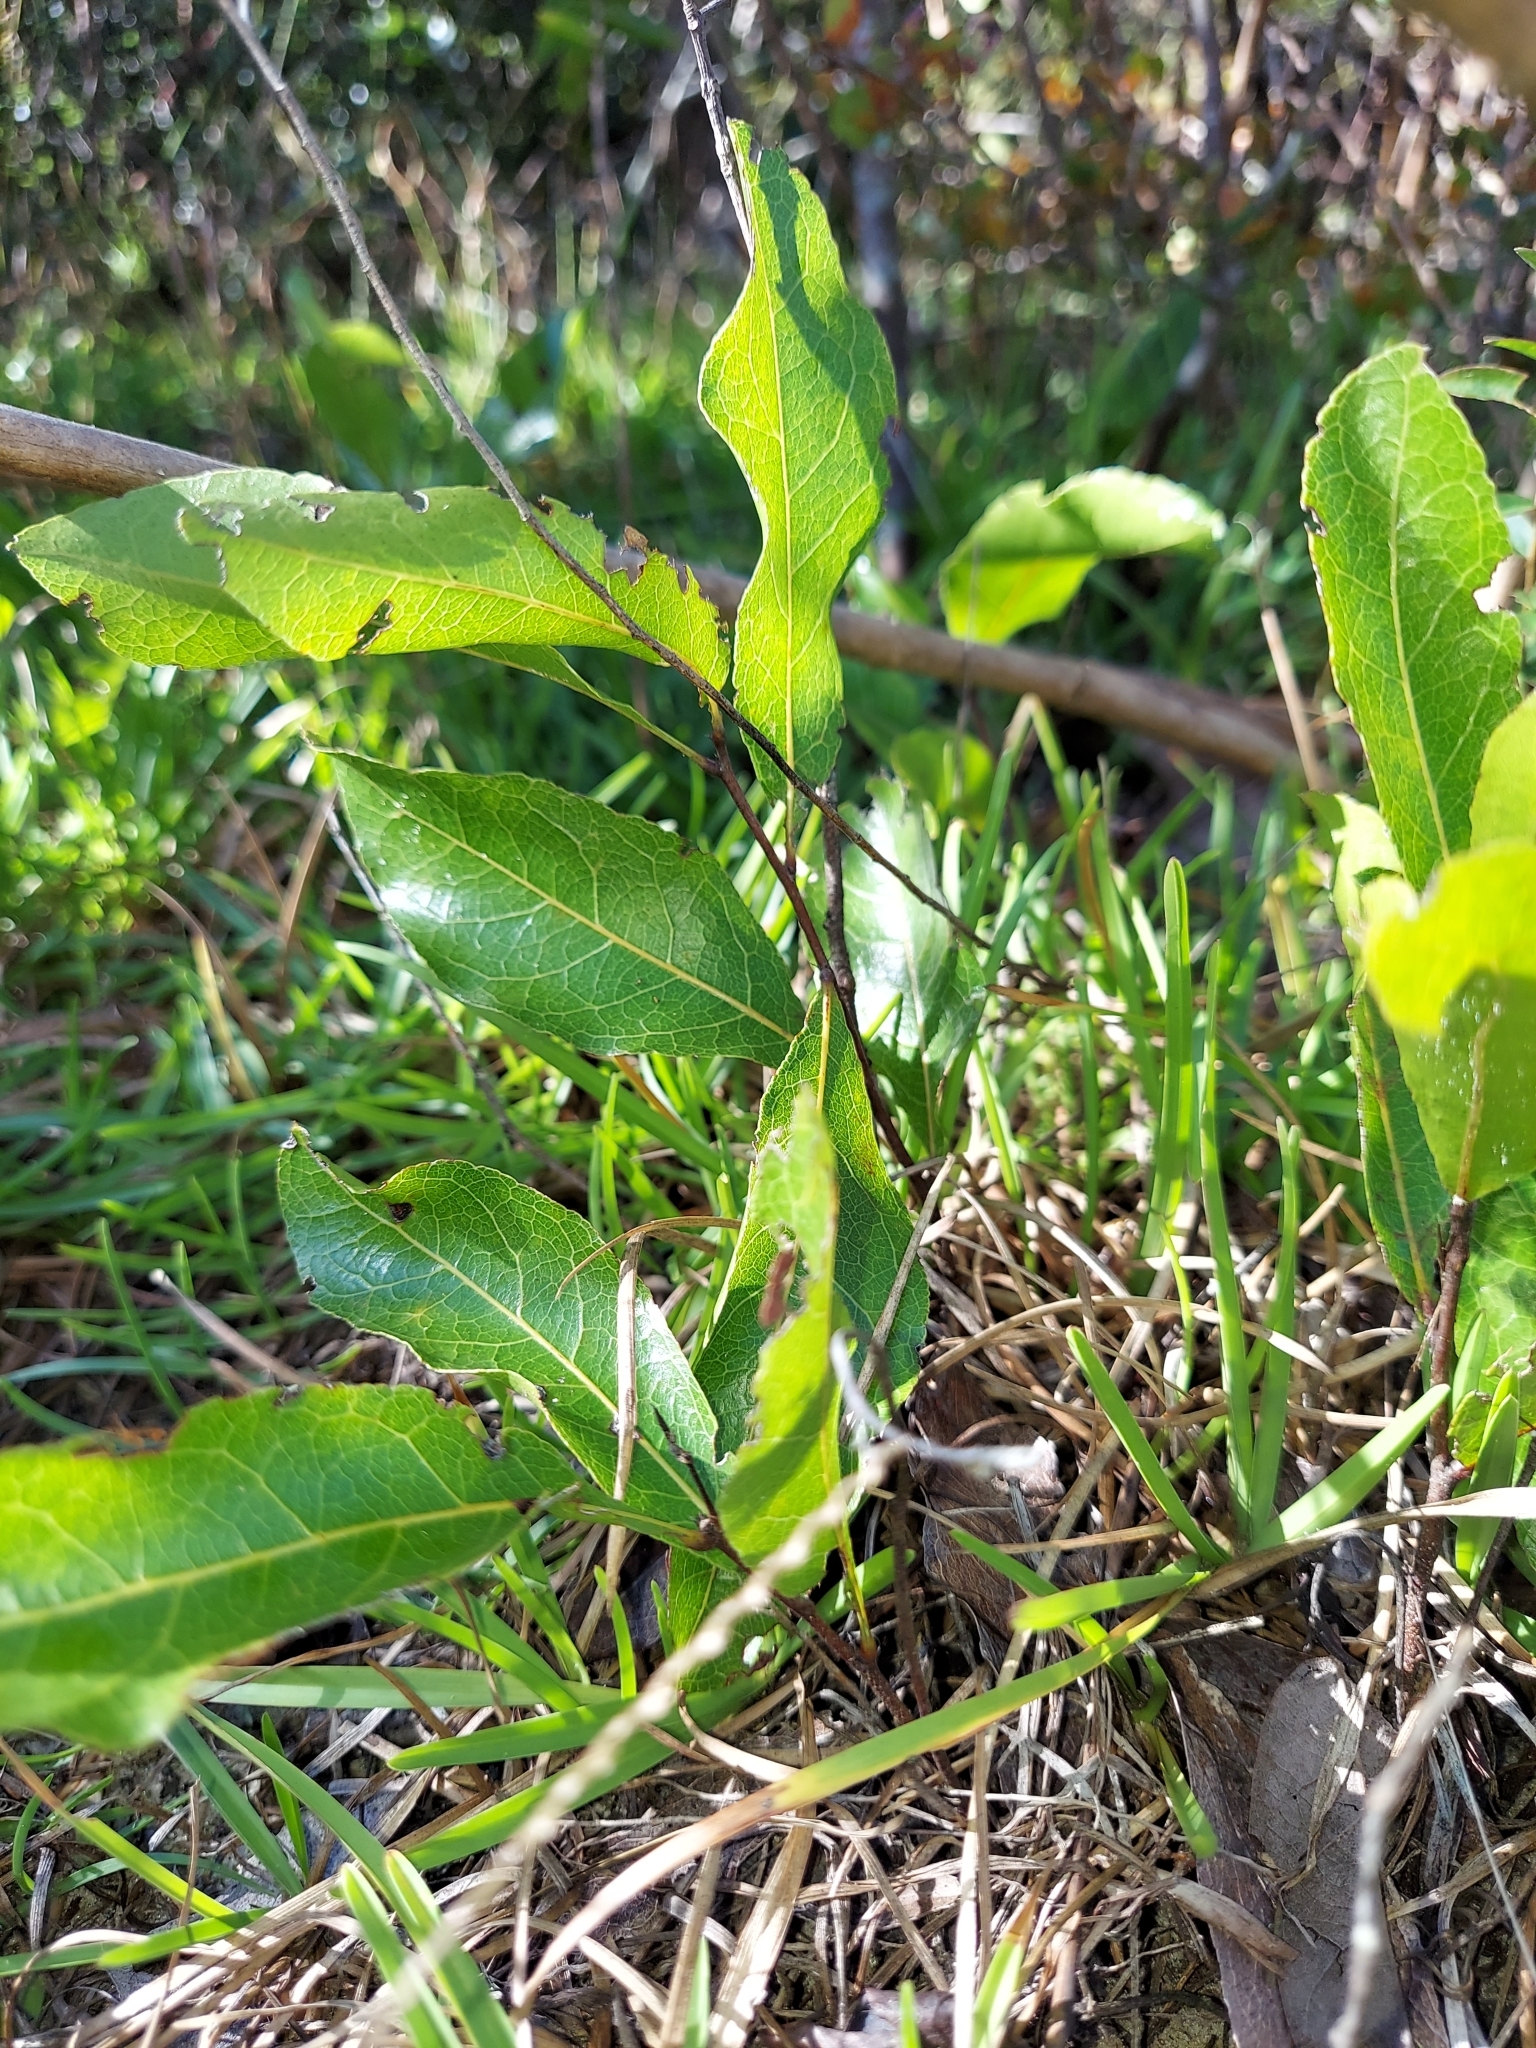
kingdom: Plantae
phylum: Tracheophyta
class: Magnoliopsida
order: Malpighiales
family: Chrysobalanaceae
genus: Geobalanus
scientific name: Geobalanus oblongifolius
